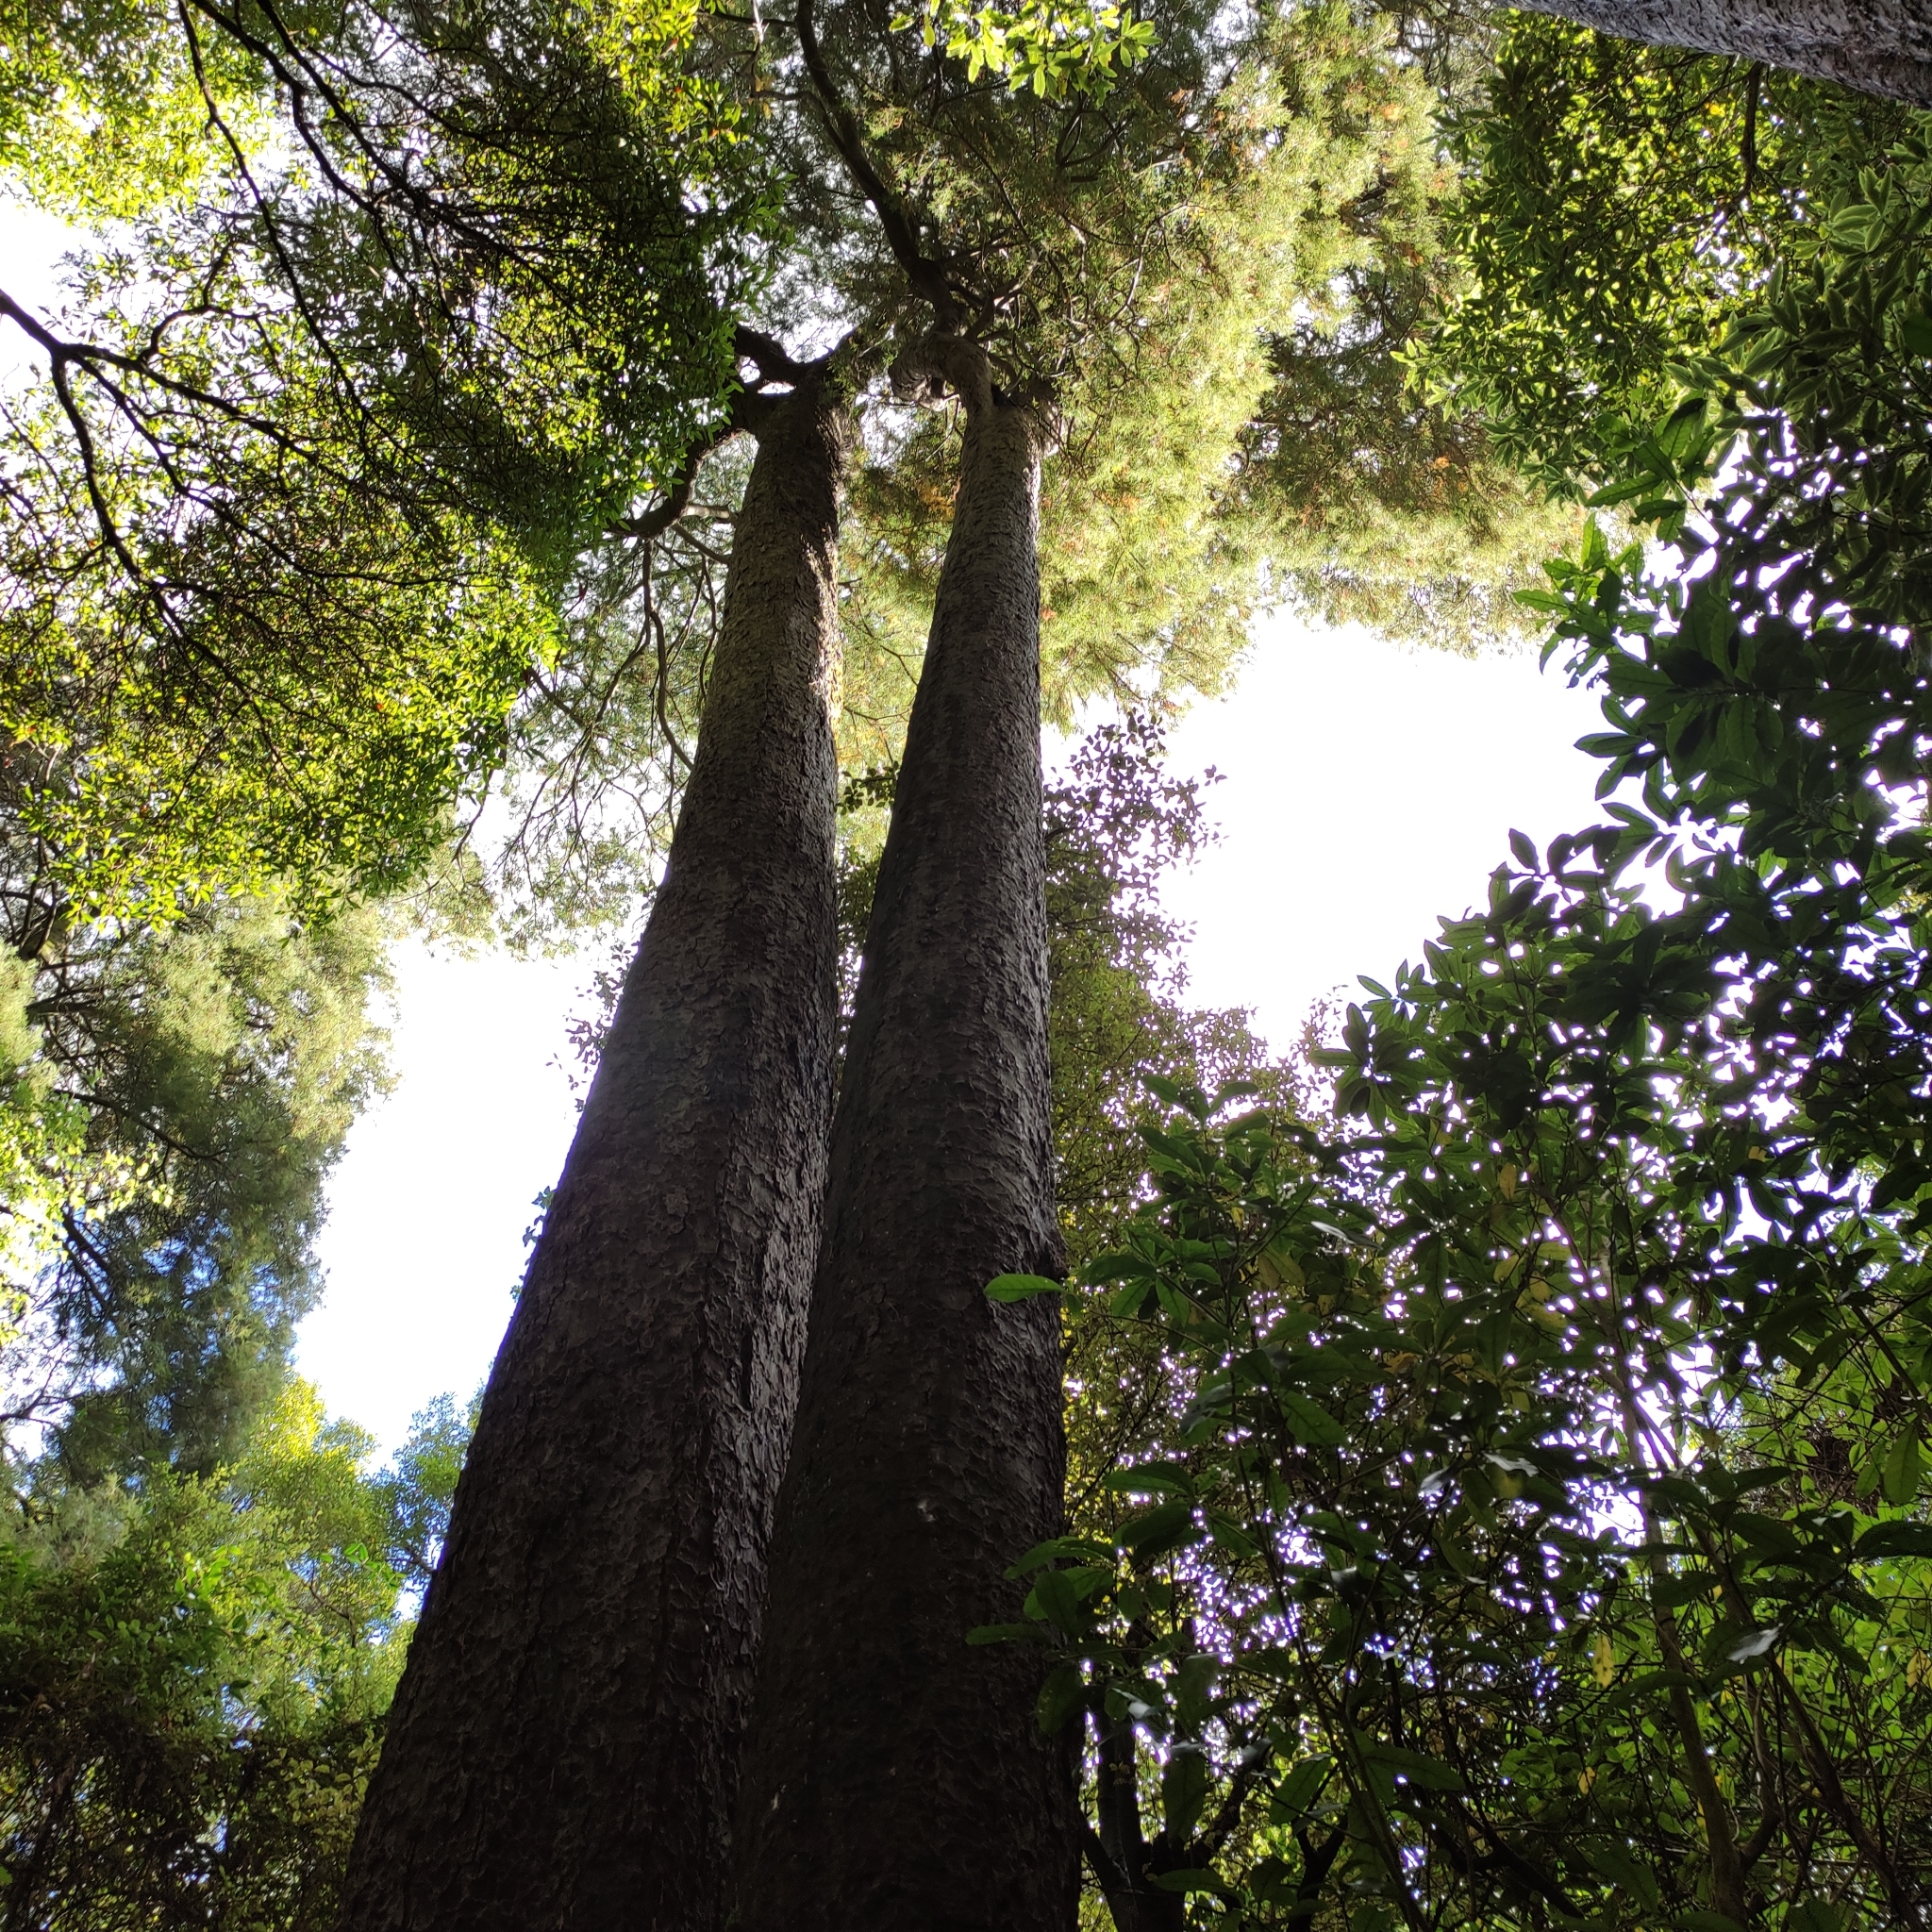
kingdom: Plantae
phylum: Tracheophyta
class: Pinopsida
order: Pinales
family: Podocarpaceae
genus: Dacrycarpus
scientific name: Dacrycarpus dacrydioides
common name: White pine
